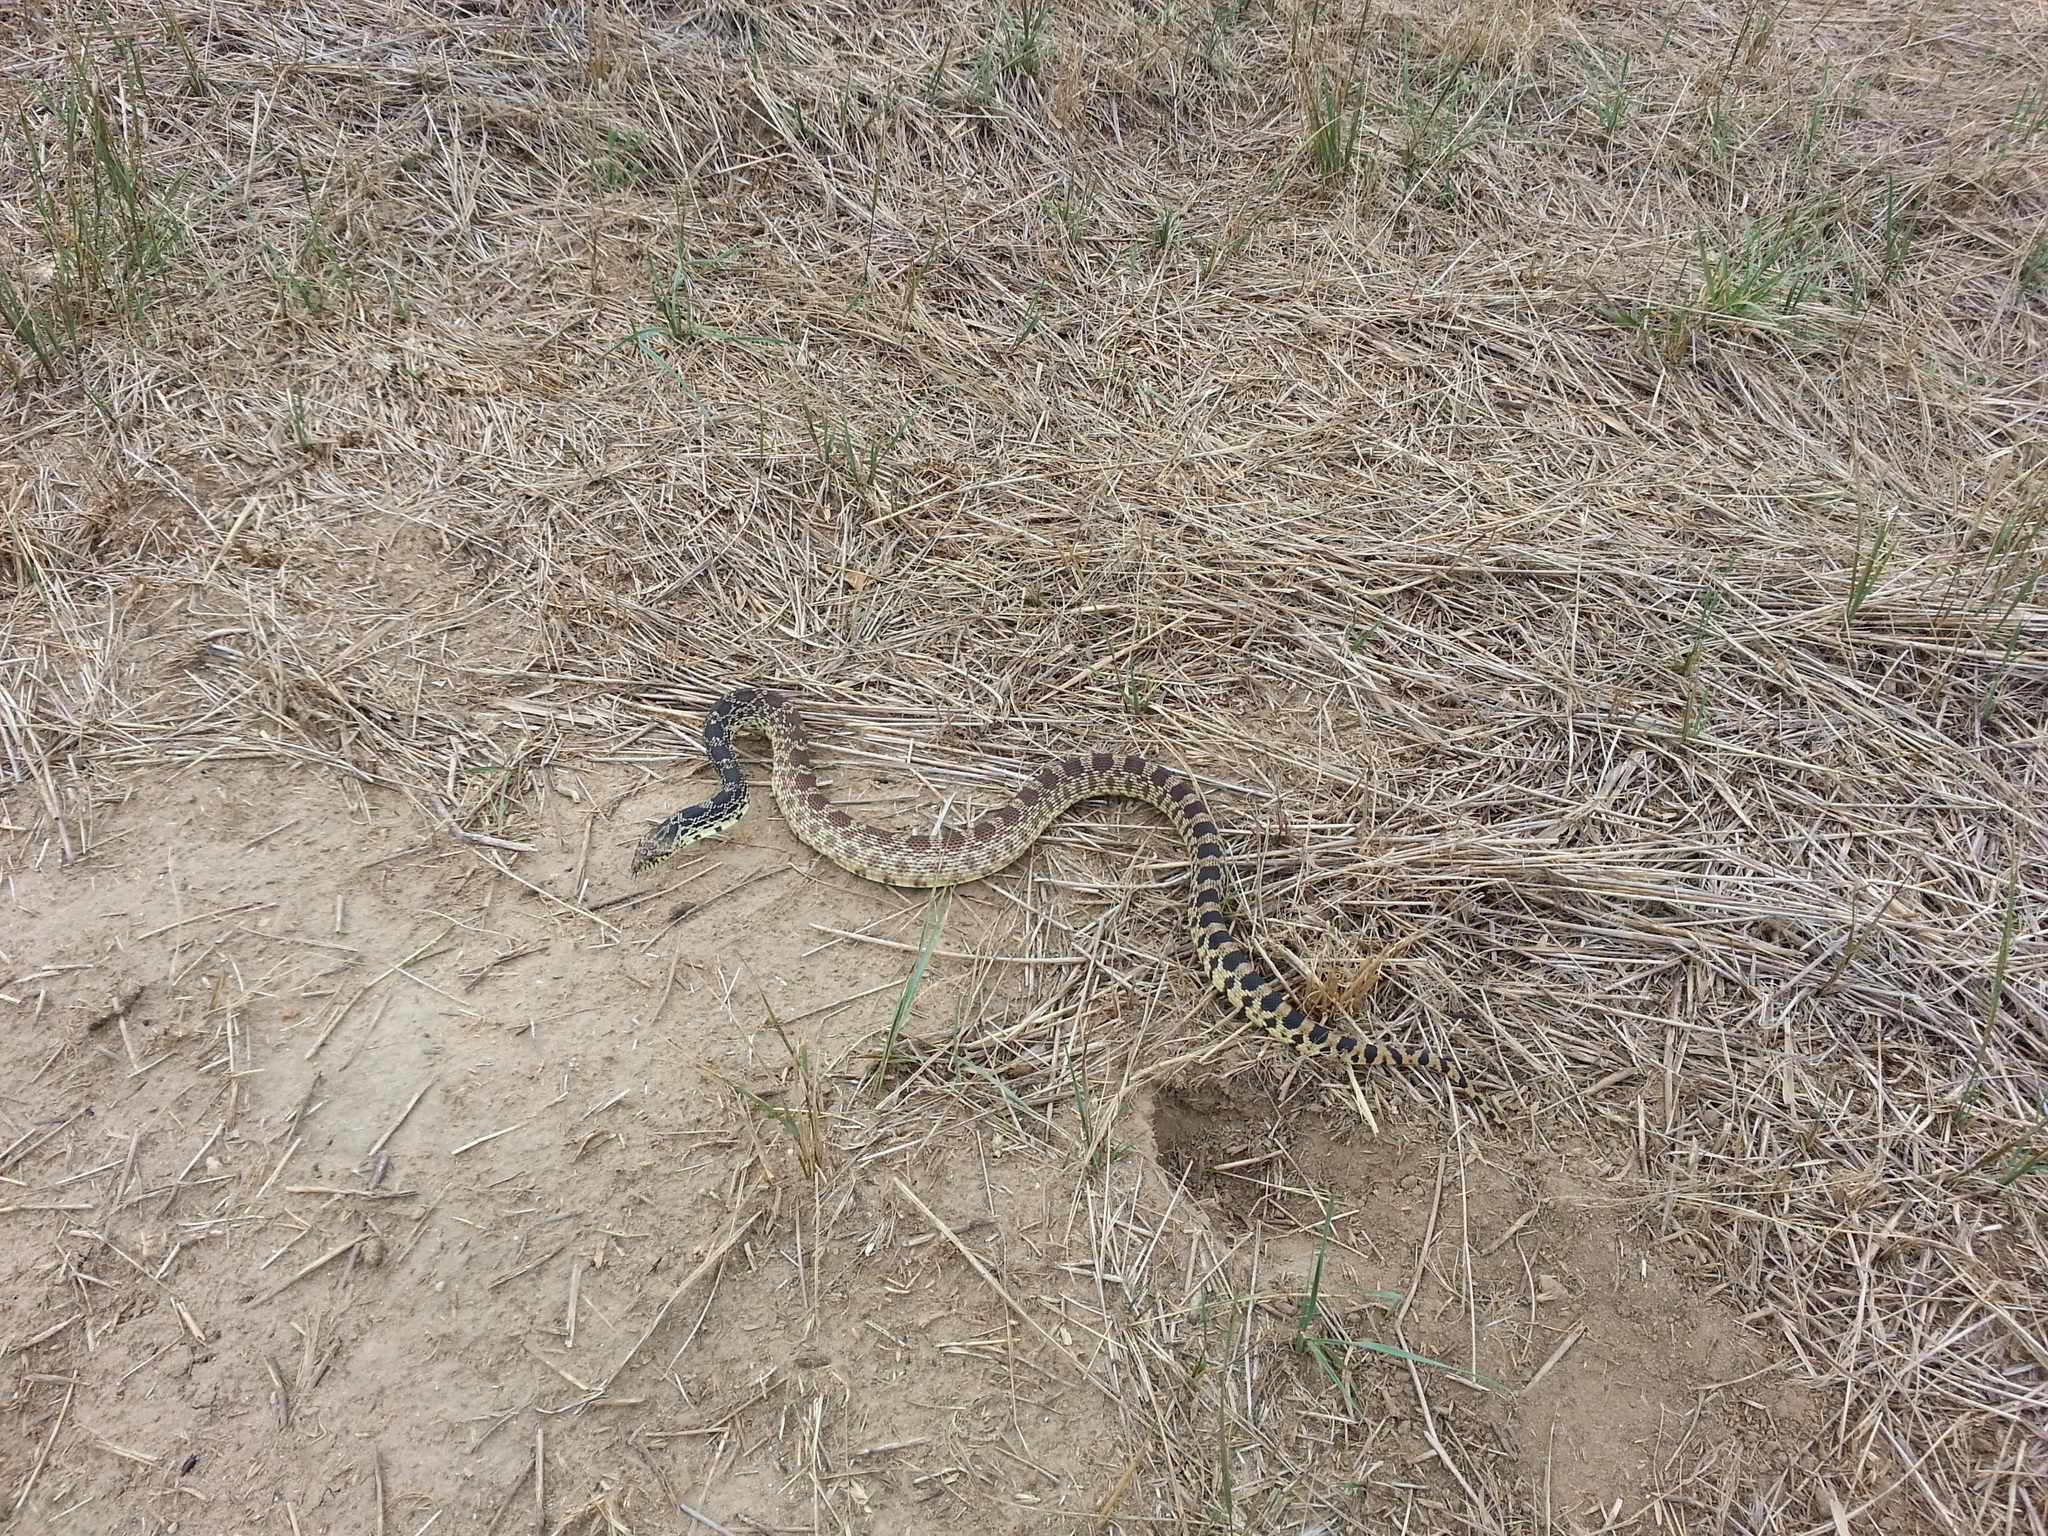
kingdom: Animalia
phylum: Chordata
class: Squamata
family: Colubridae
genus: Pituophis
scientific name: Pituophis catenifer
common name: Gopher snake
